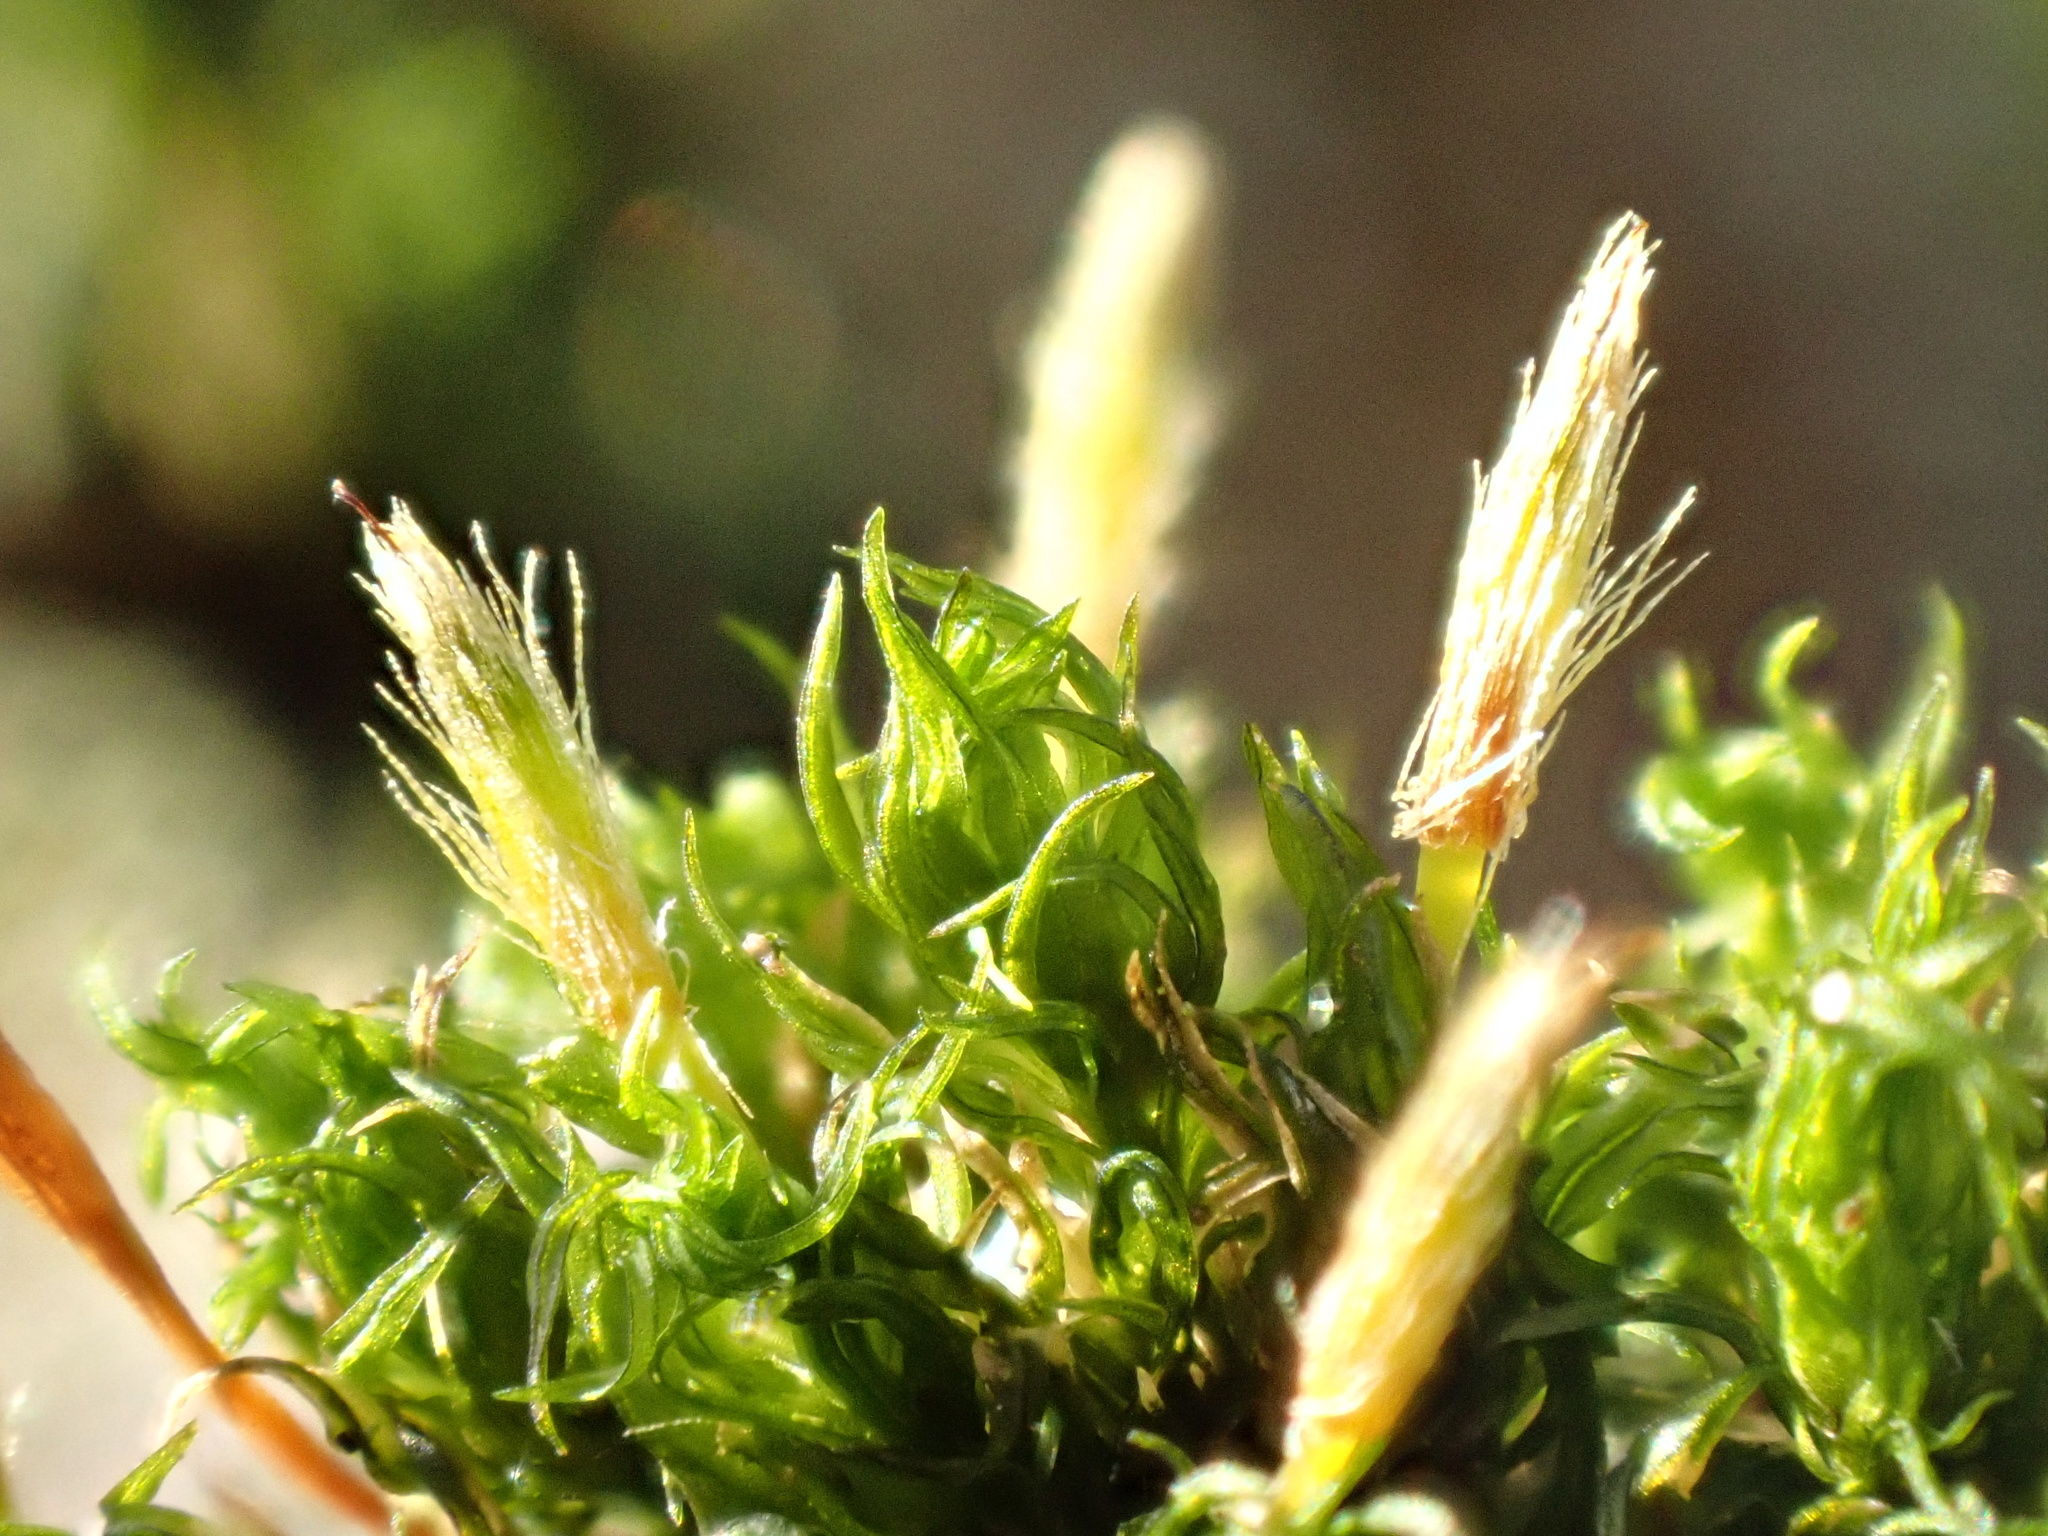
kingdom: Plantae
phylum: Bryophyta
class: Bryopsida
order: Orthotrichales
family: Orthotrichaceae
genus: Ulota
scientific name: Ulota bruchii
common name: Bruch's pincushion
